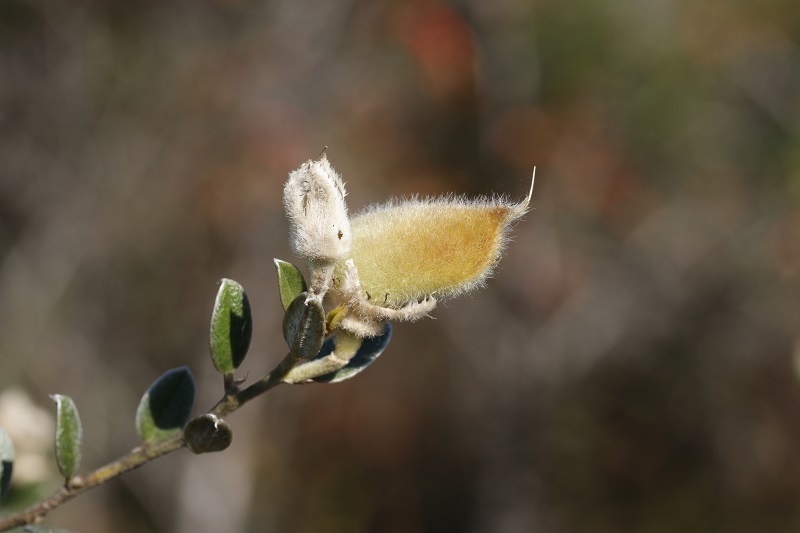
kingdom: Plantae
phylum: Tracheophyta
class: Magnoliopsida
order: Fabales
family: Fabaceae
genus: Podalyria
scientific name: Podalyria burchellii
